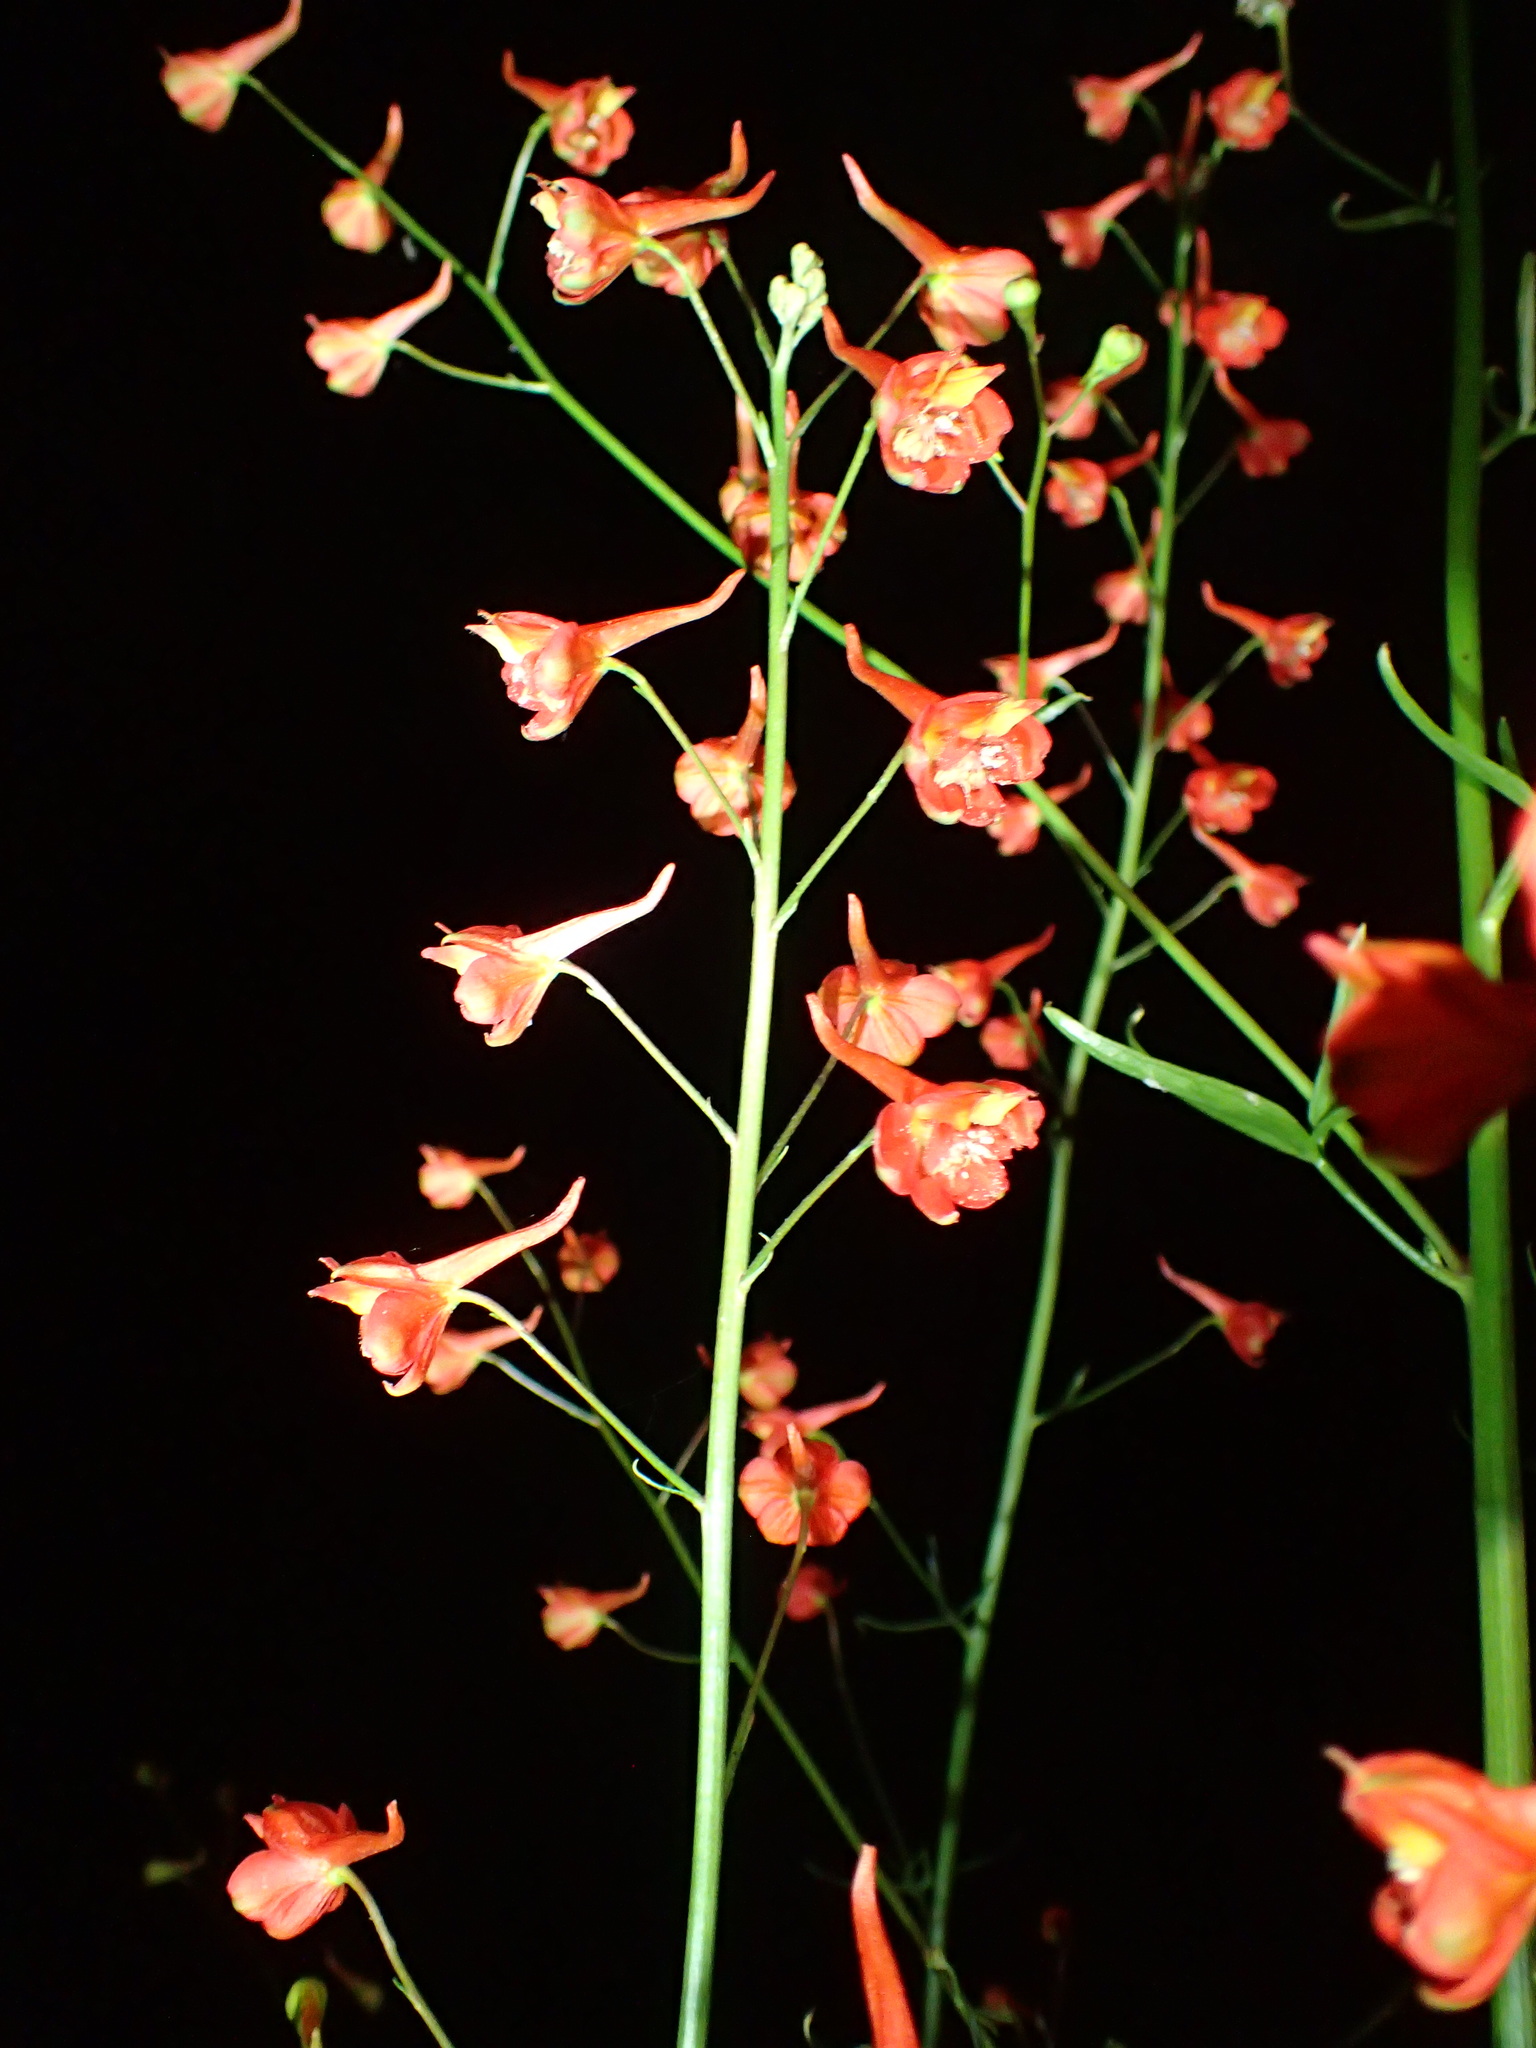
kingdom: Plantae
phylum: Tracheophyta
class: Magnoliopsida
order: Ranunculales
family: Ranunculaceae
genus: Delphinium
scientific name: Delphinium cardinale
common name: Scarlet larkspur
